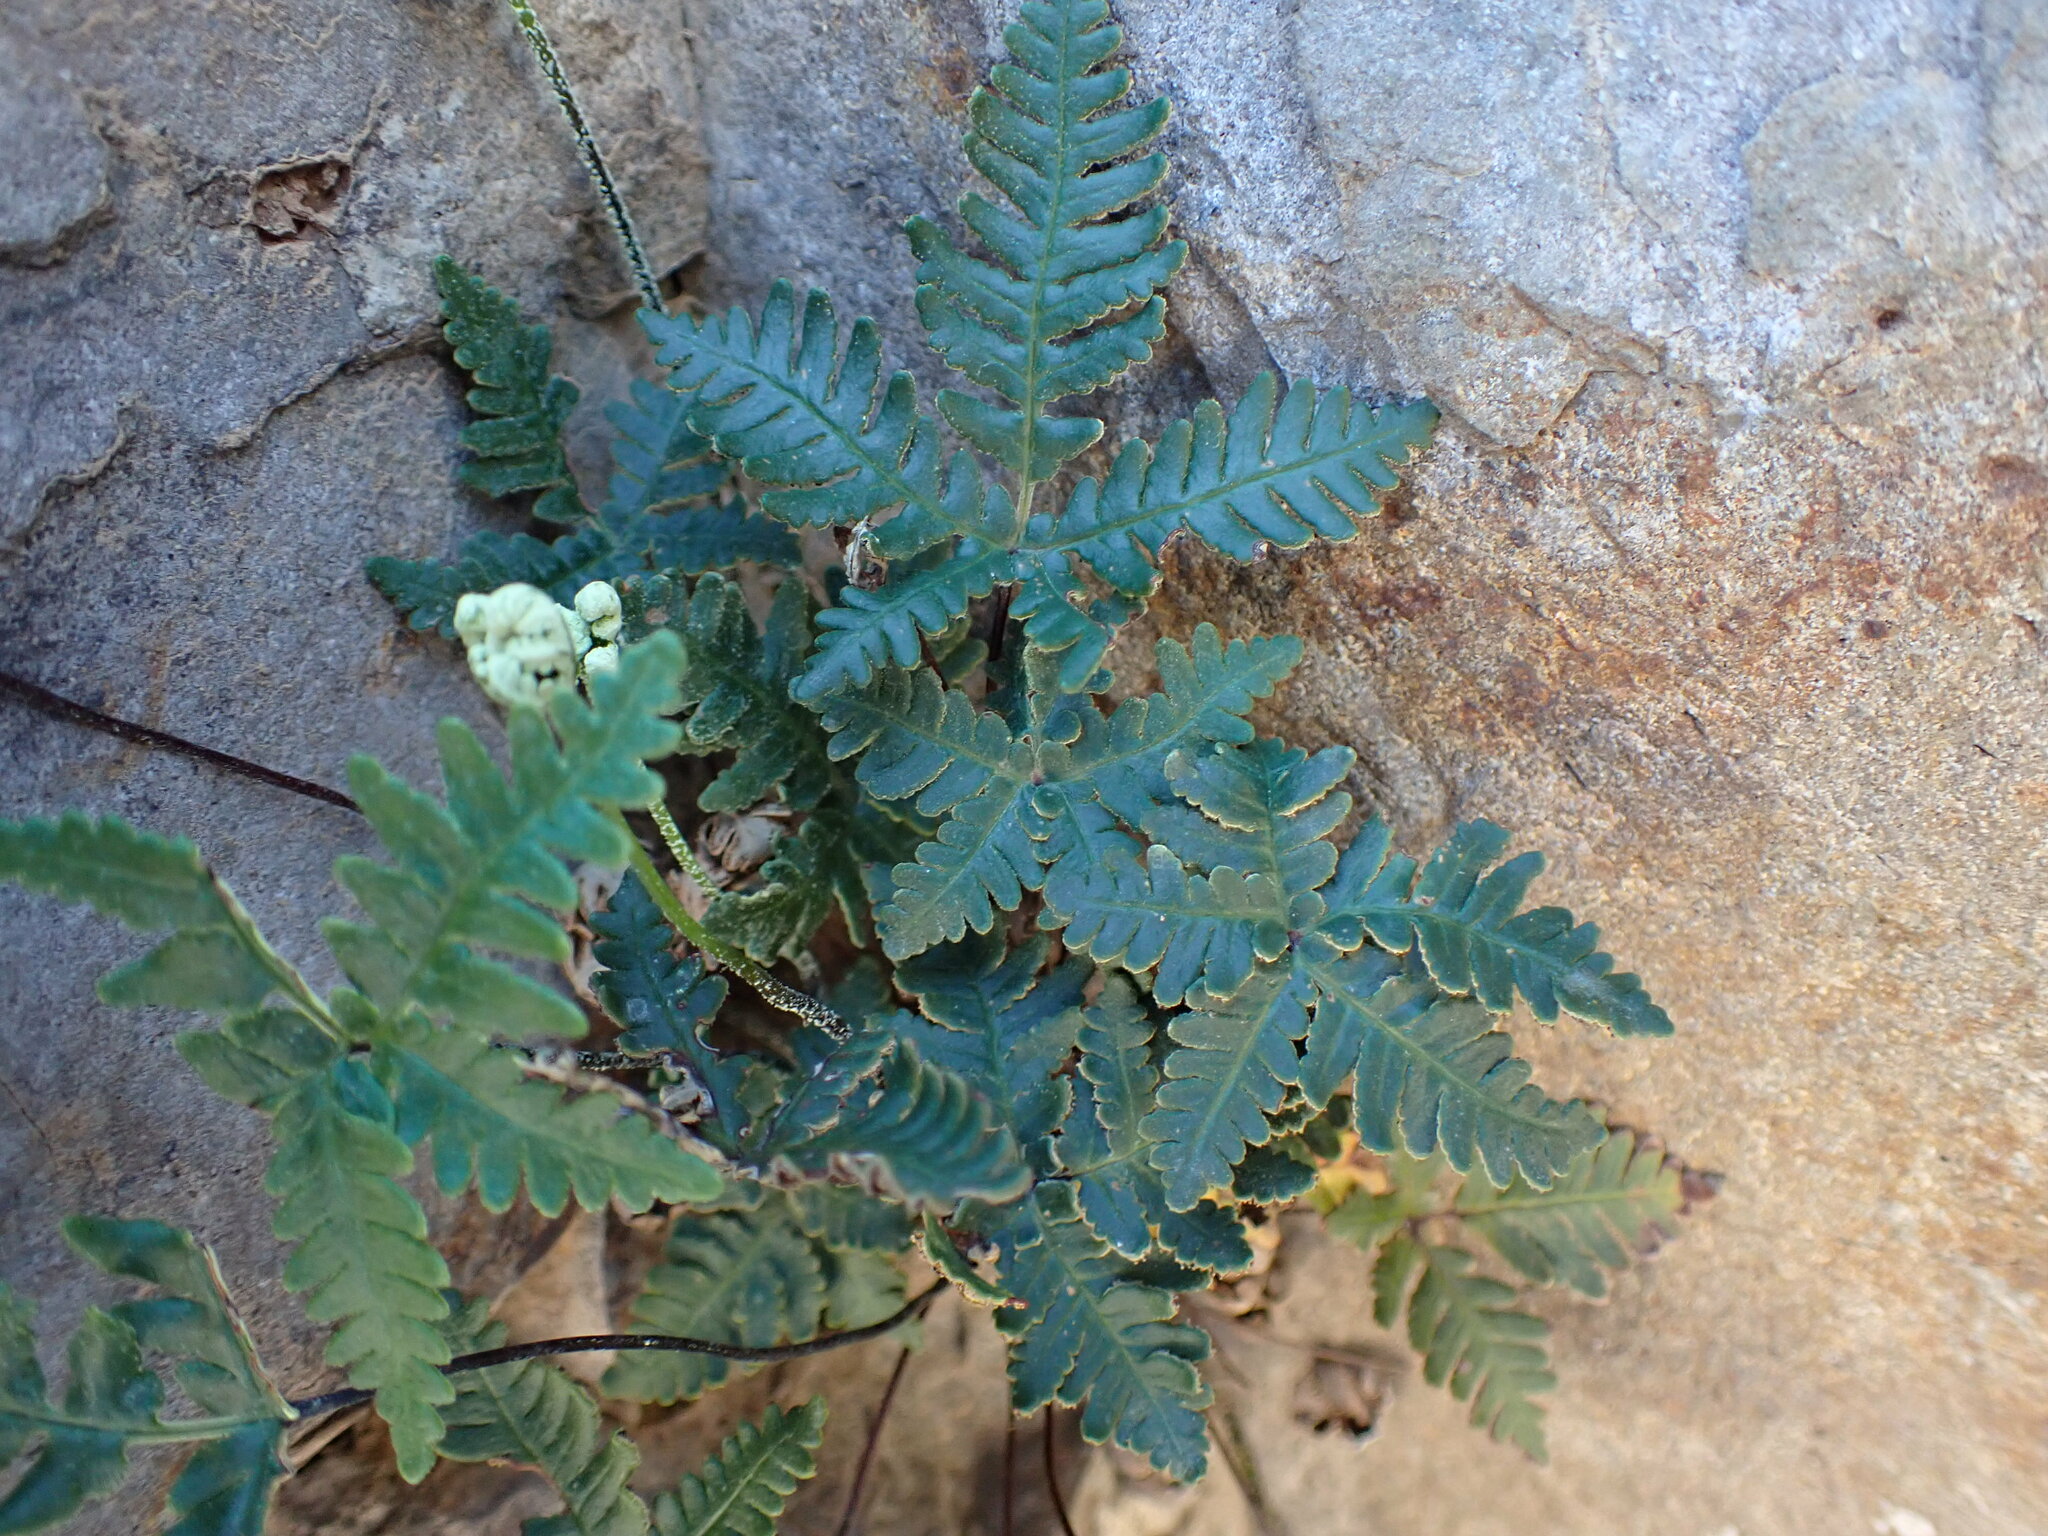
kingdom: Plantae
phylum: Tracheophyta
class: Polypodiopsida
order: Polypodiales
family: Pteridaceae
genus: Notholaena
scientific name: Notholaena standleyi
